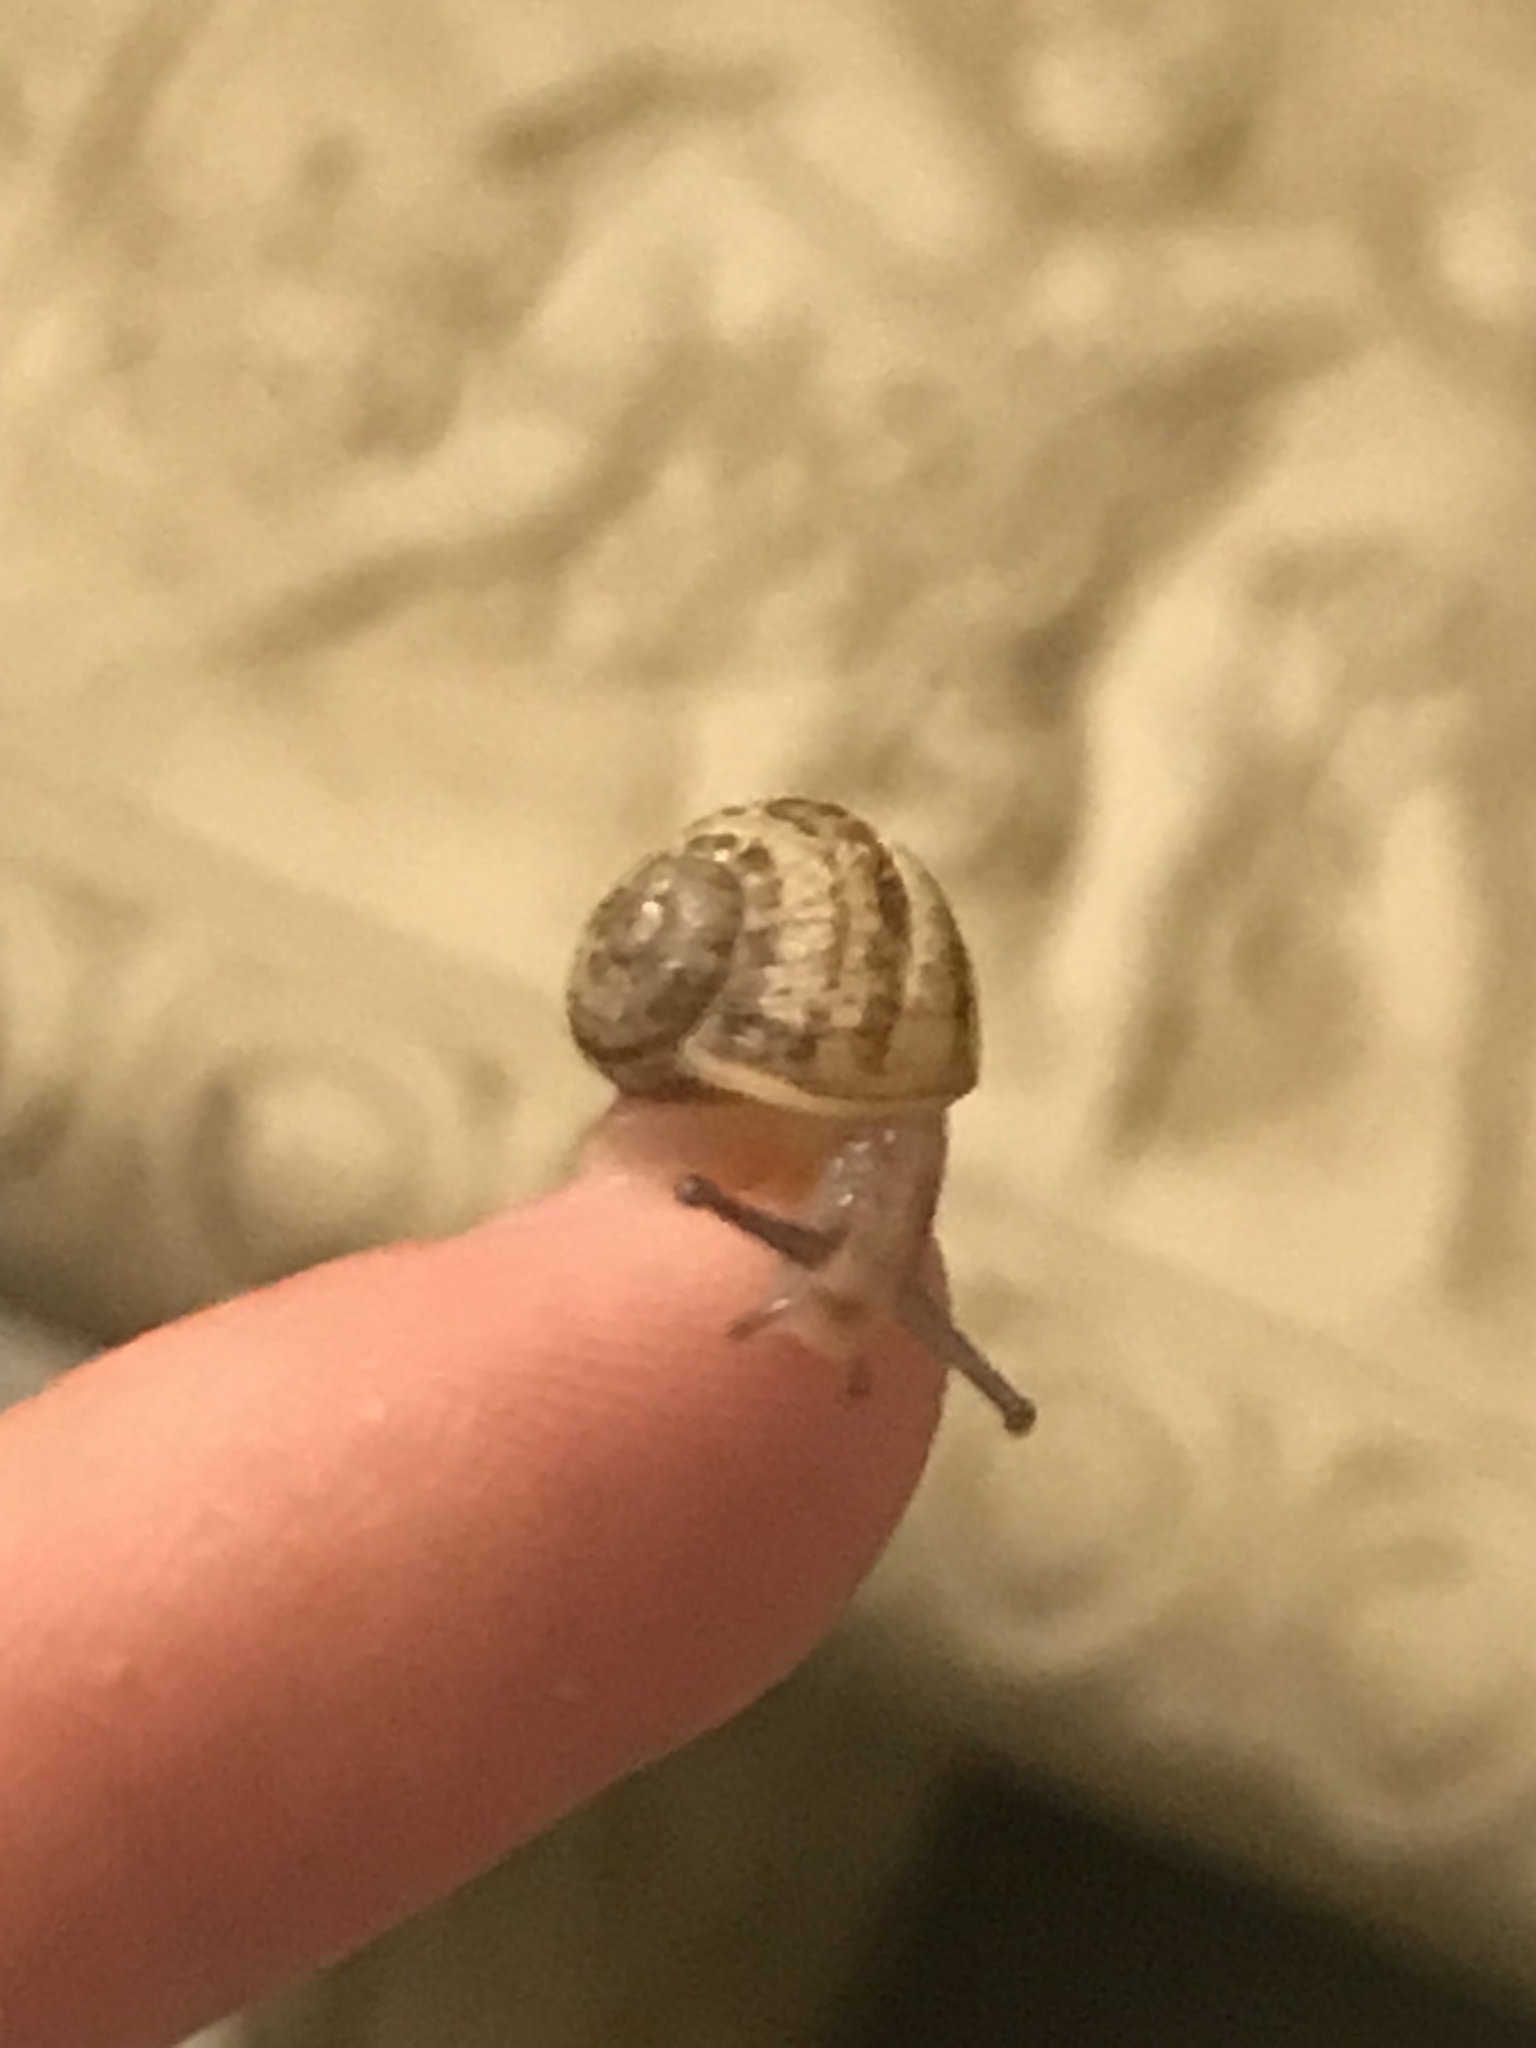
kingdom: Animalia
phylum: Mollusca
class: Gastropoda
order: Stylommatophora
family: Helicidae
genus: Cornu
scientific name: Cornu aspersum
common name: Brown garden snail
